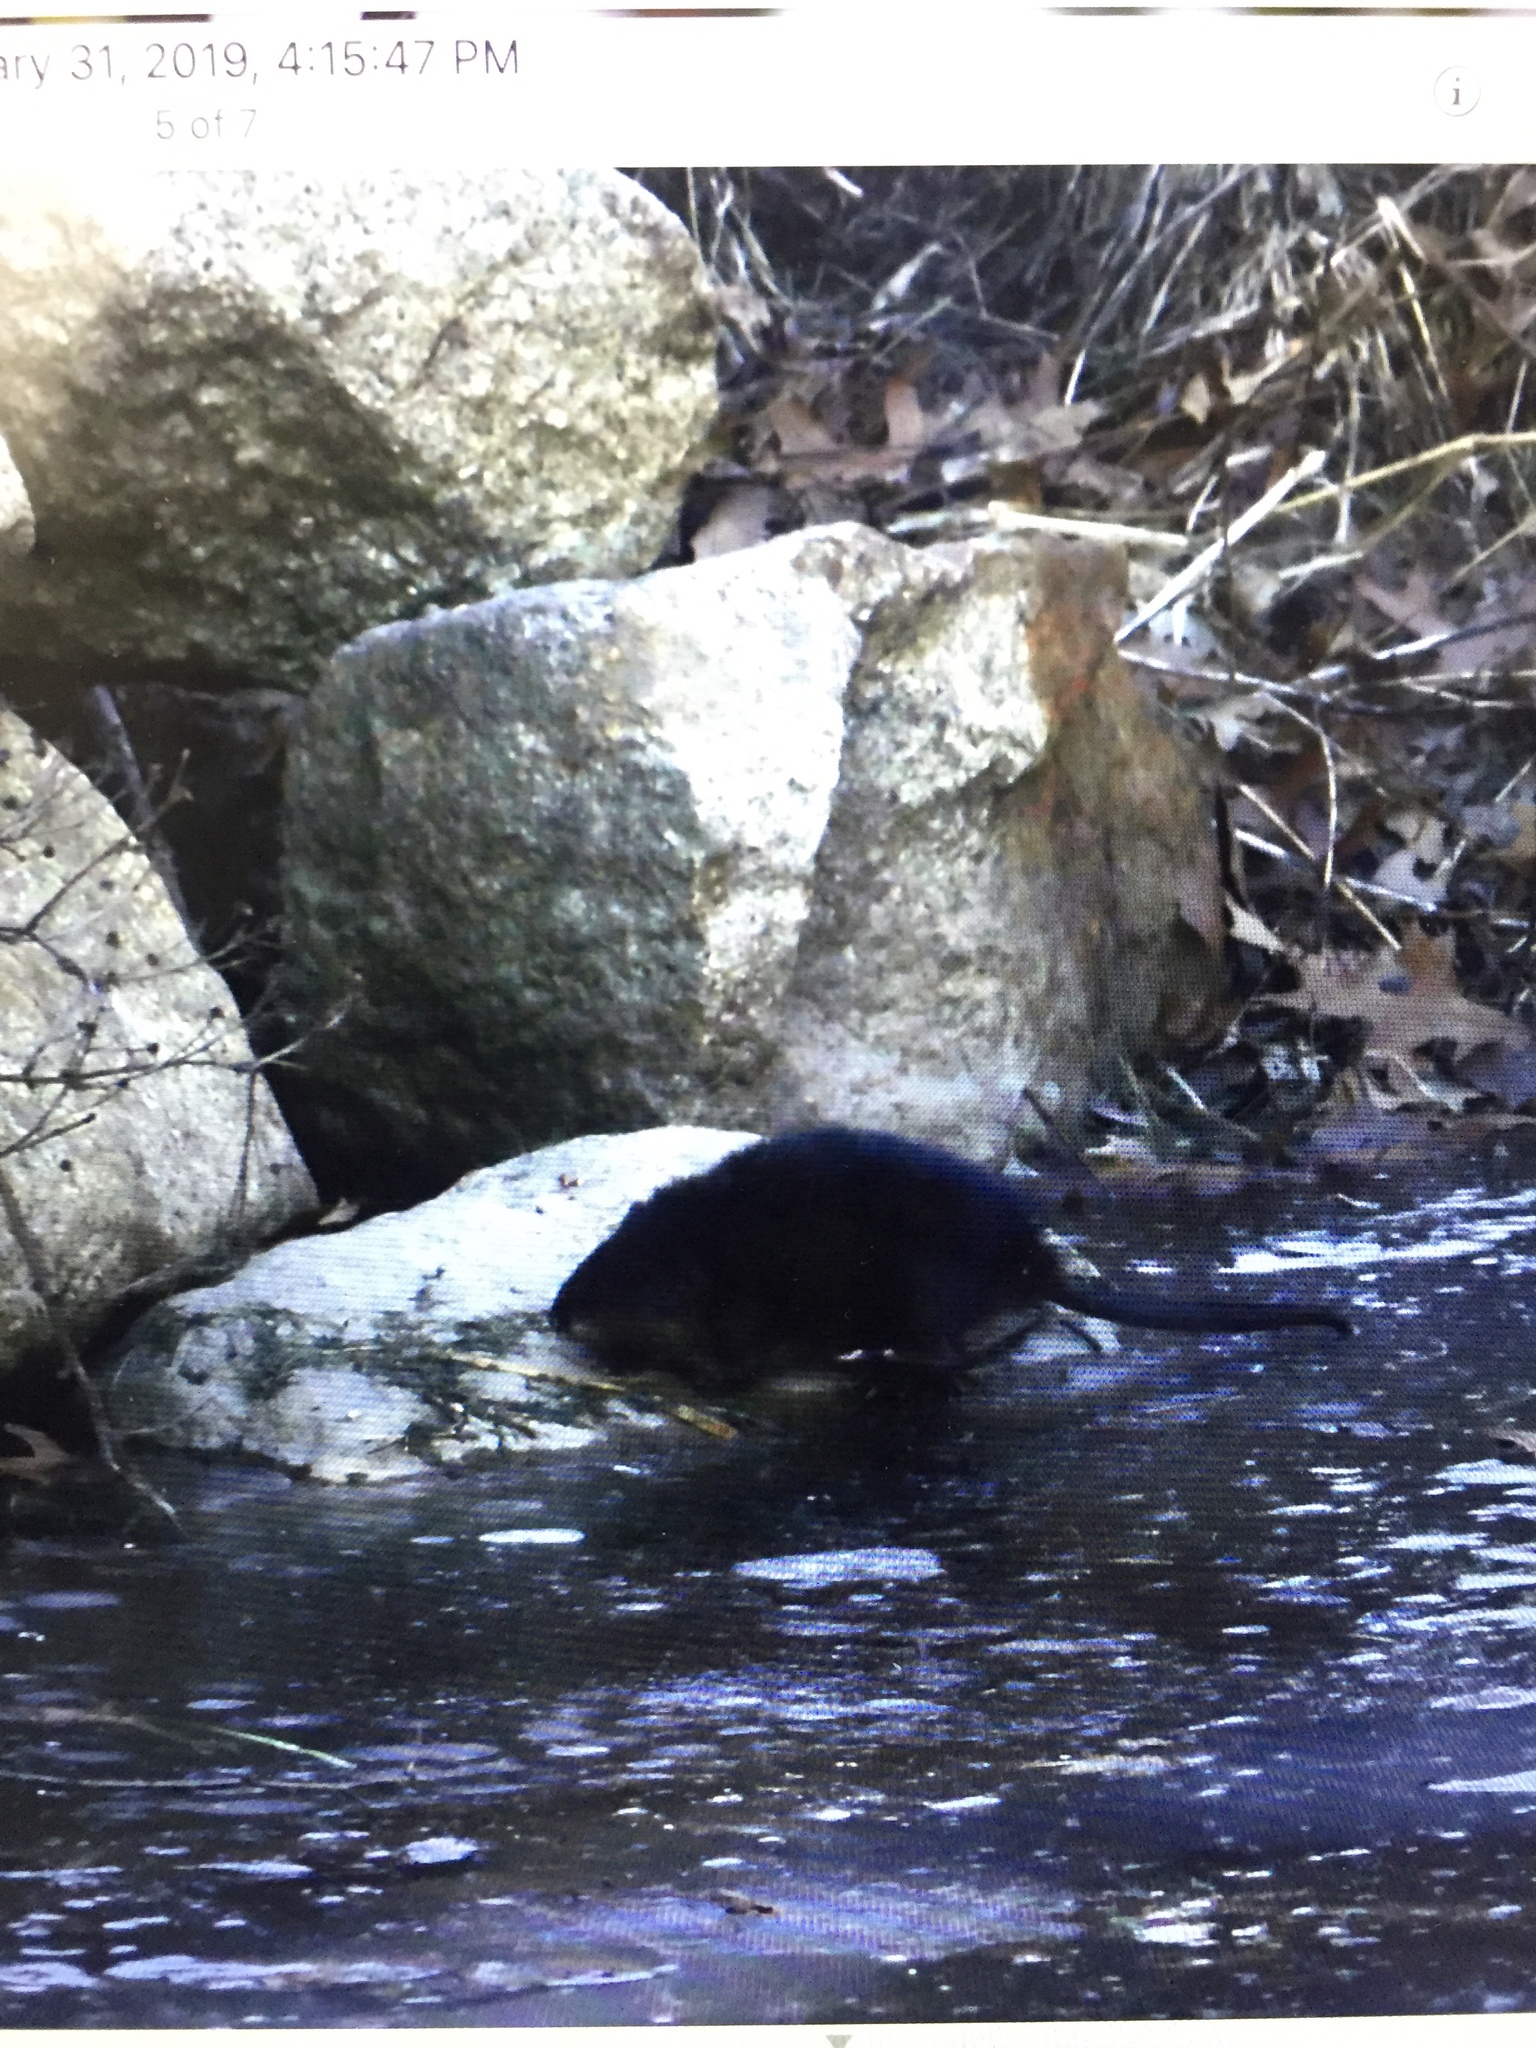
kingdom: Animalia
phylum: Chordata
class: Mammalia
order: Rodentia
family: Cricetidae
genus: Ondatra
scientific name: Ondatra zibethicus
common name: Muskrat
